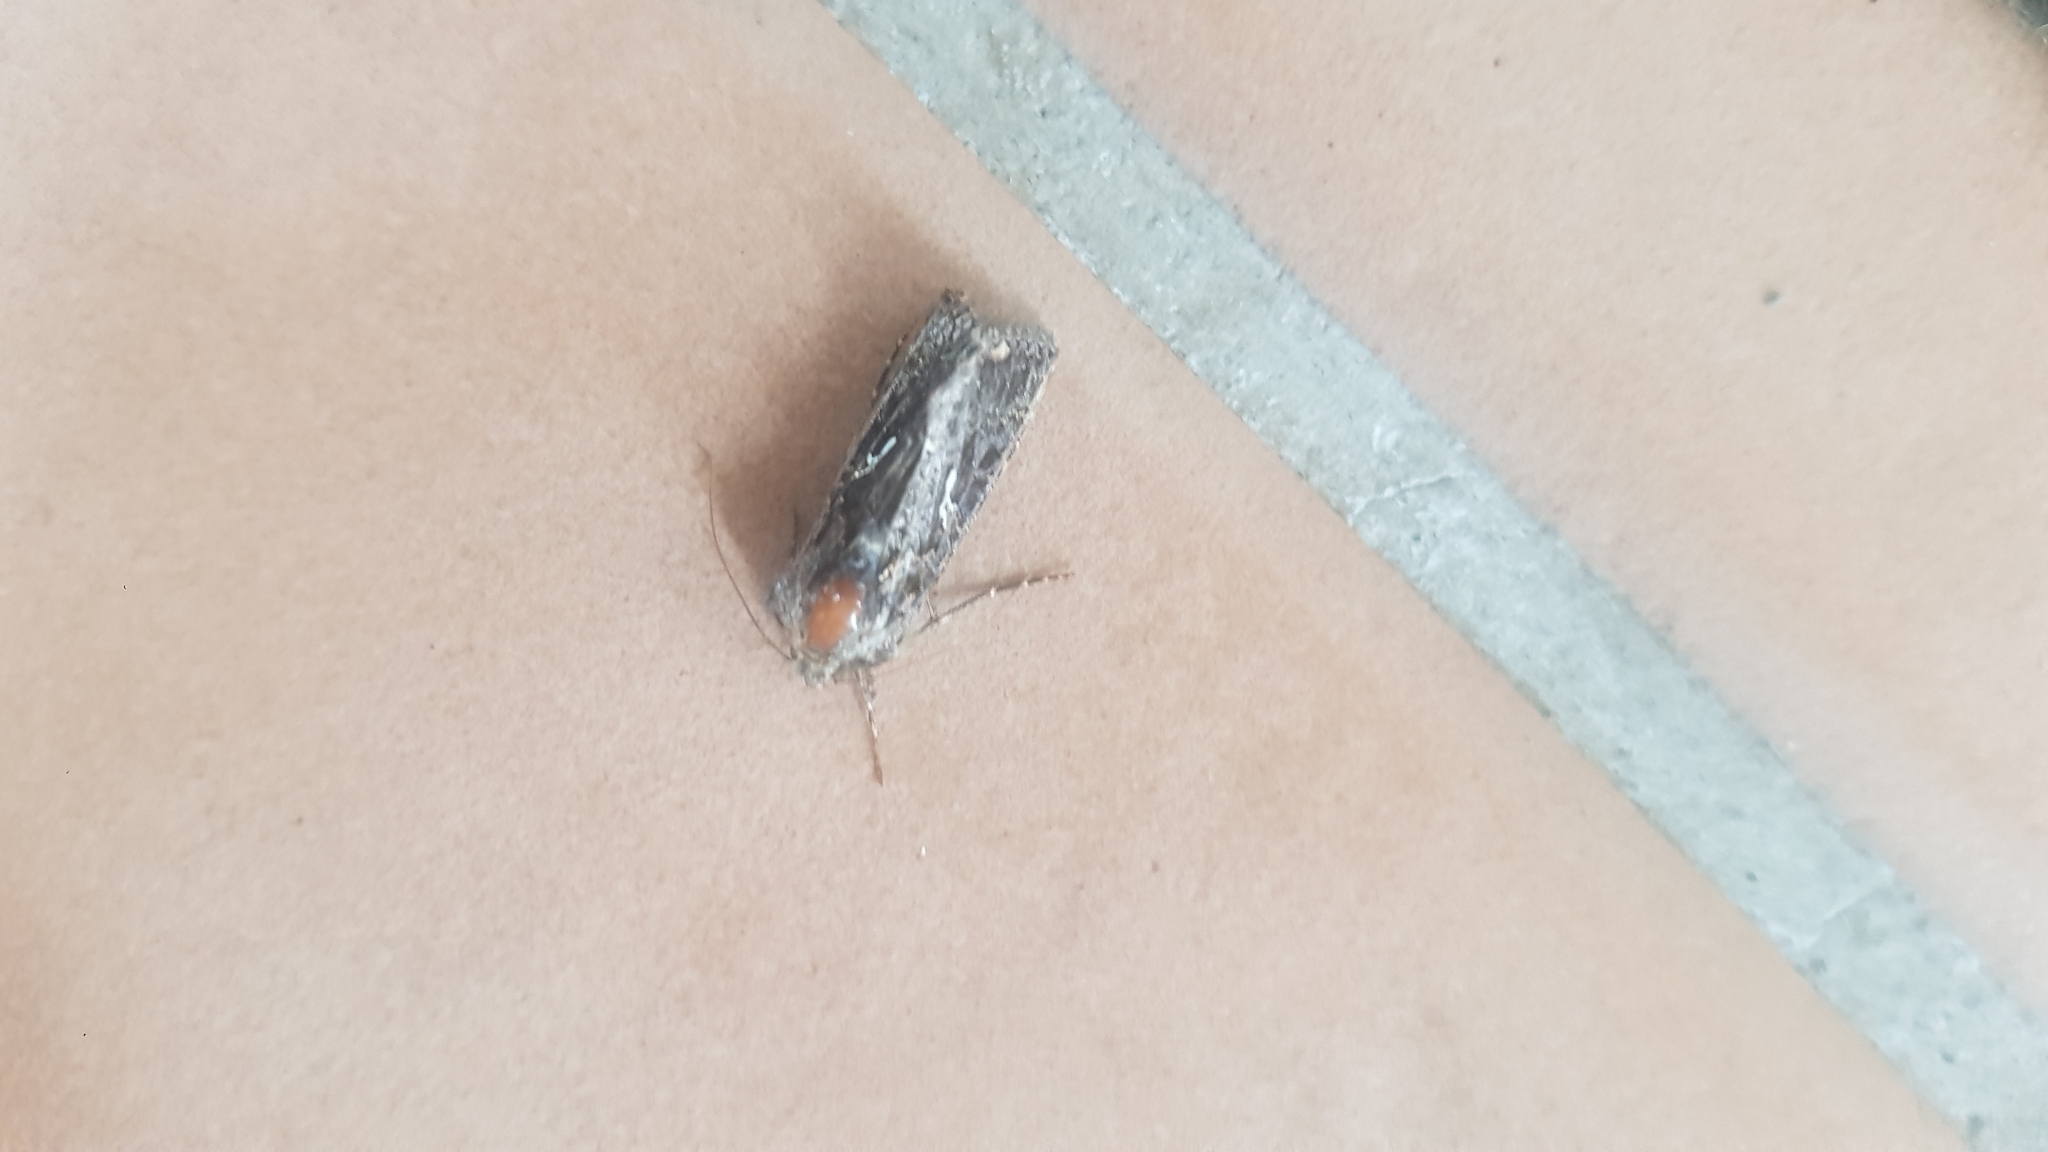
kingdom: Animalia
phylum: Arthropoda
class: Insecta
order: Lepidoptera
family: Noctuidae
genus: Ctenoplusia
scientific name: Ctenoplusia limbirena
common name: Scar bank gem
